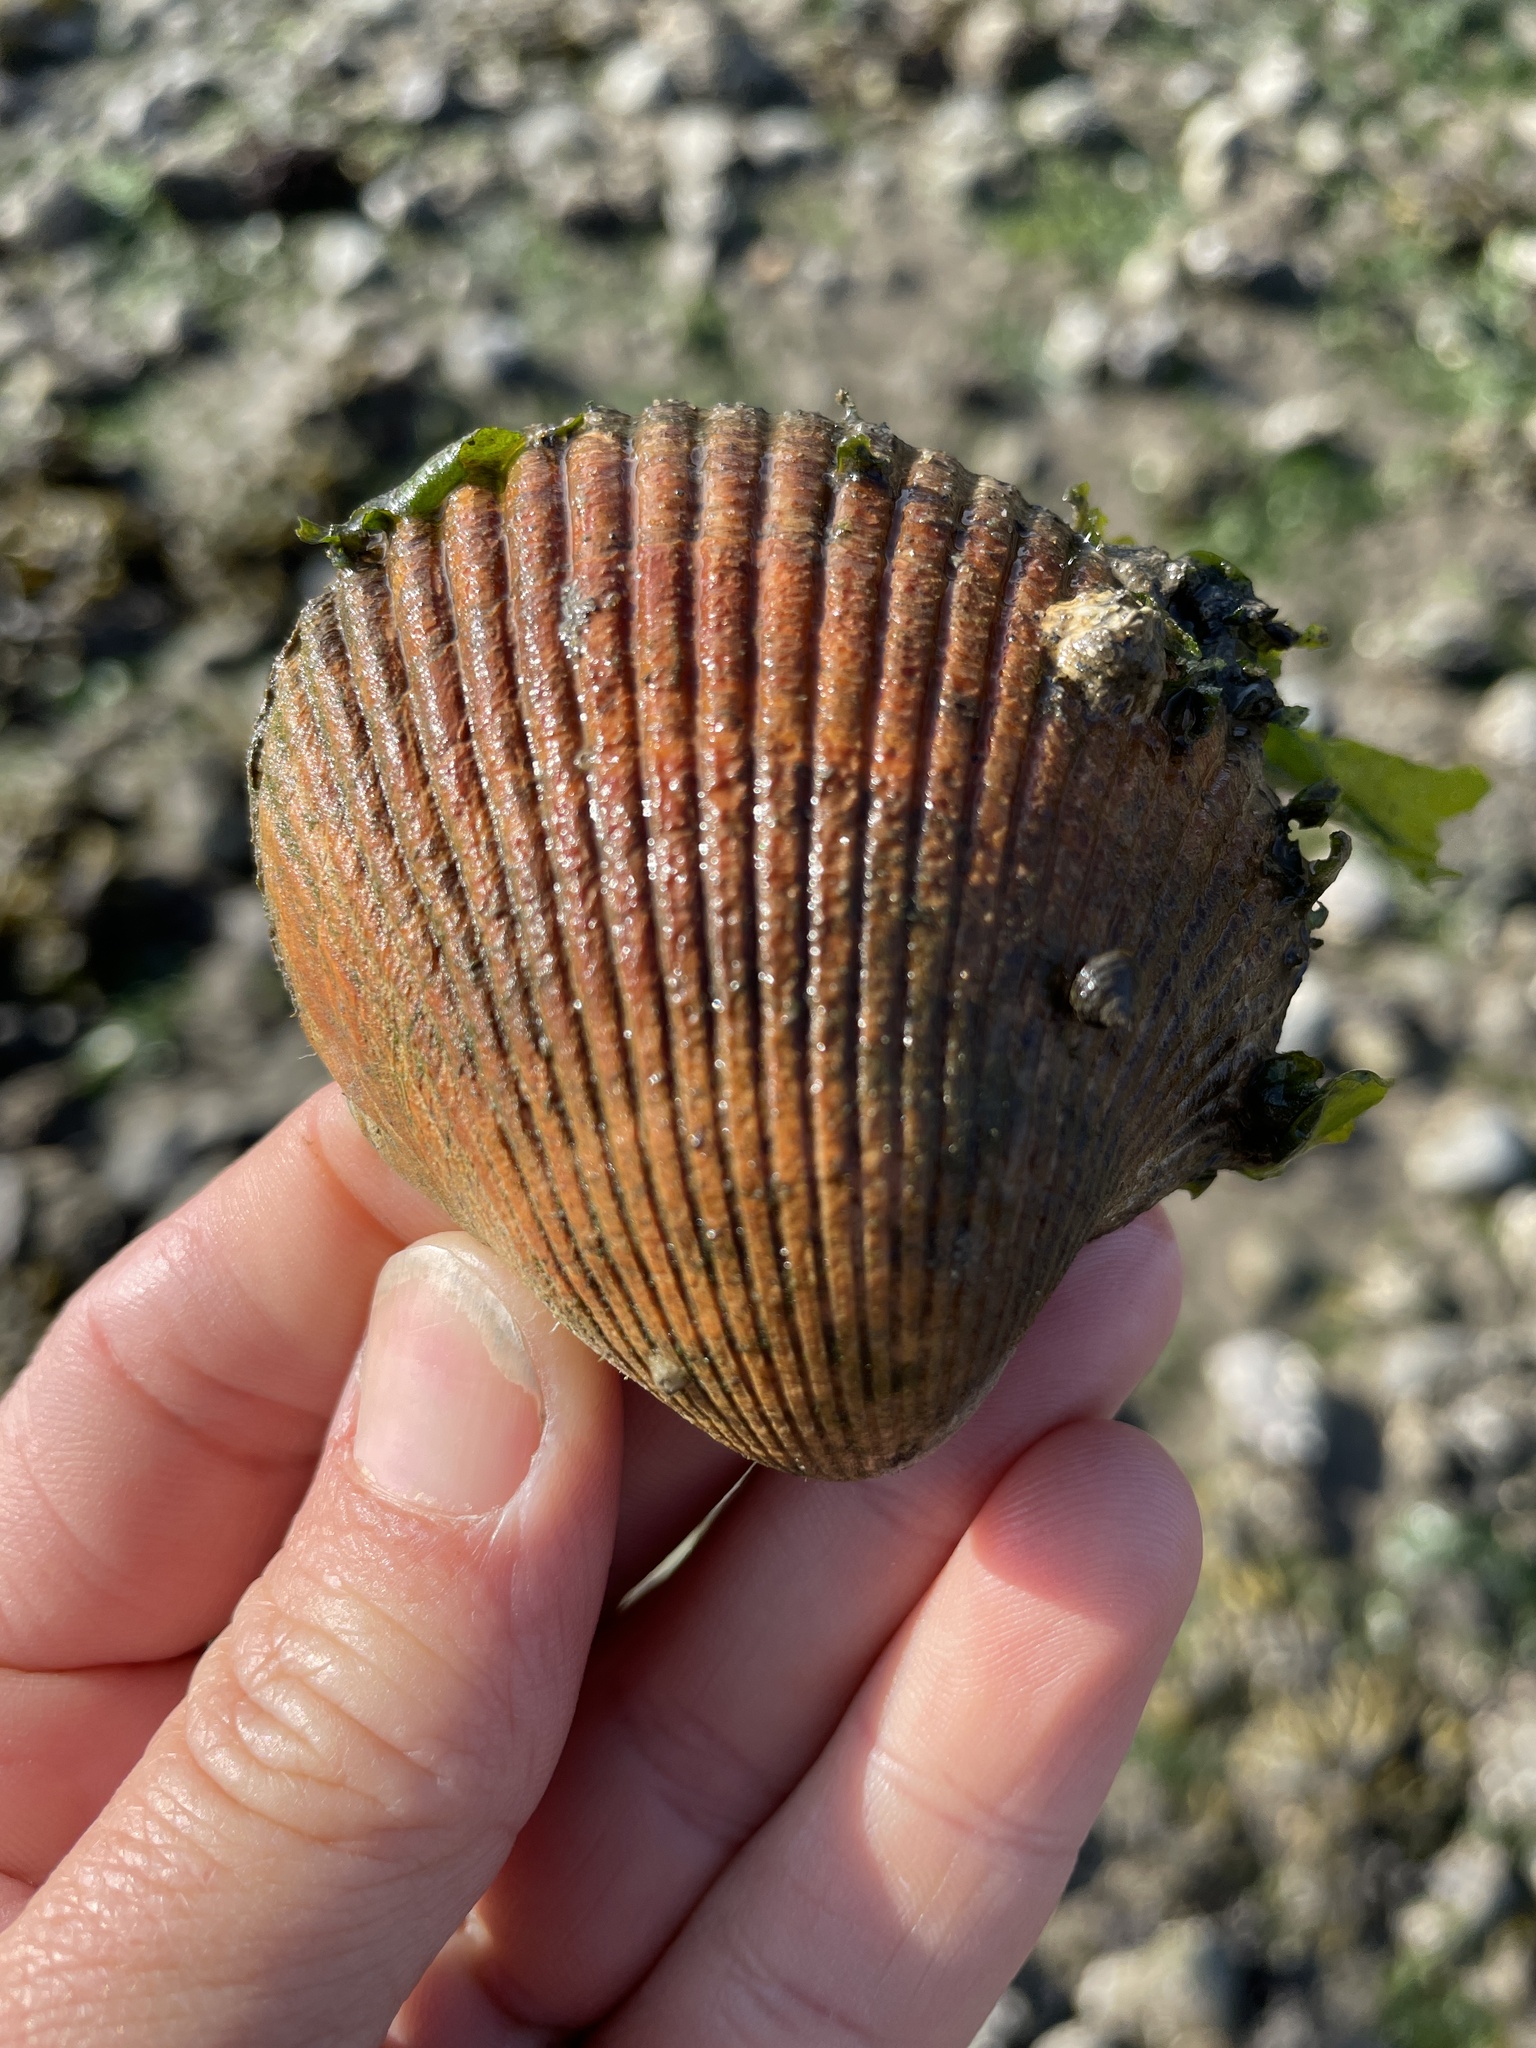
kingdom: Animalia
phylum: Mollusca
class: Bivalvia
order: Cardiida
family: Cardiidae
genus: Clinocardium
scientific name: Clinocardium nuttallii
